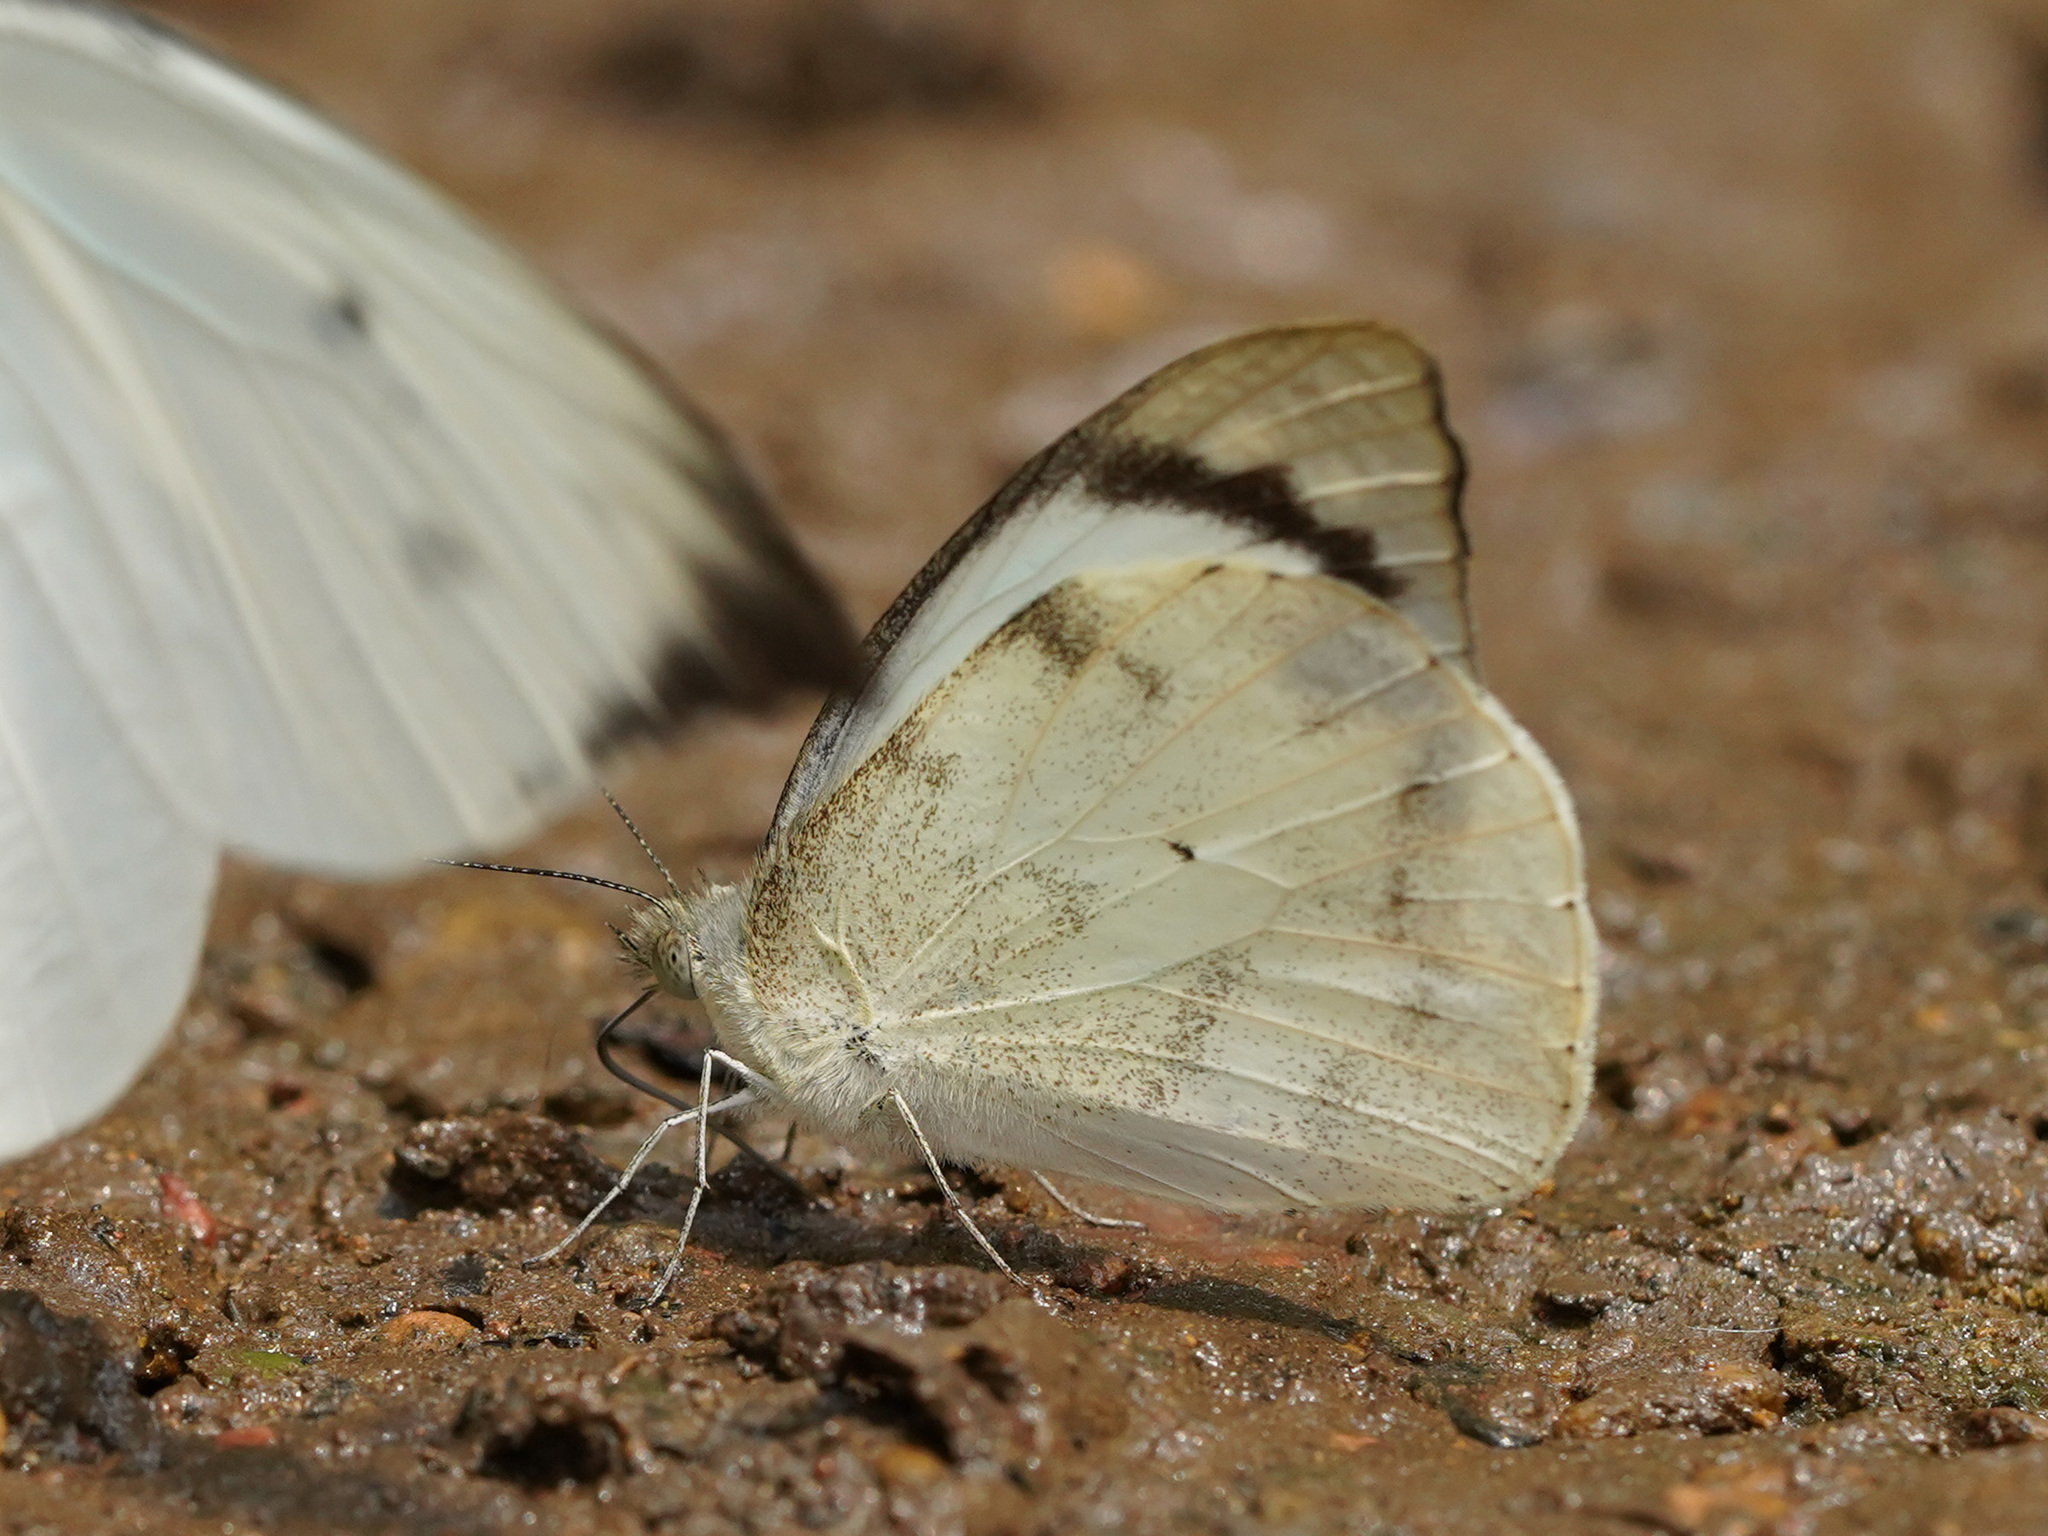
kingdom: Animalia
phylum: Arthropoda
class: Insecta
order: Lepidoptera
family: Pieridae
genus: Appias
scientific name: Appias lalage
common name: Spot puffin
